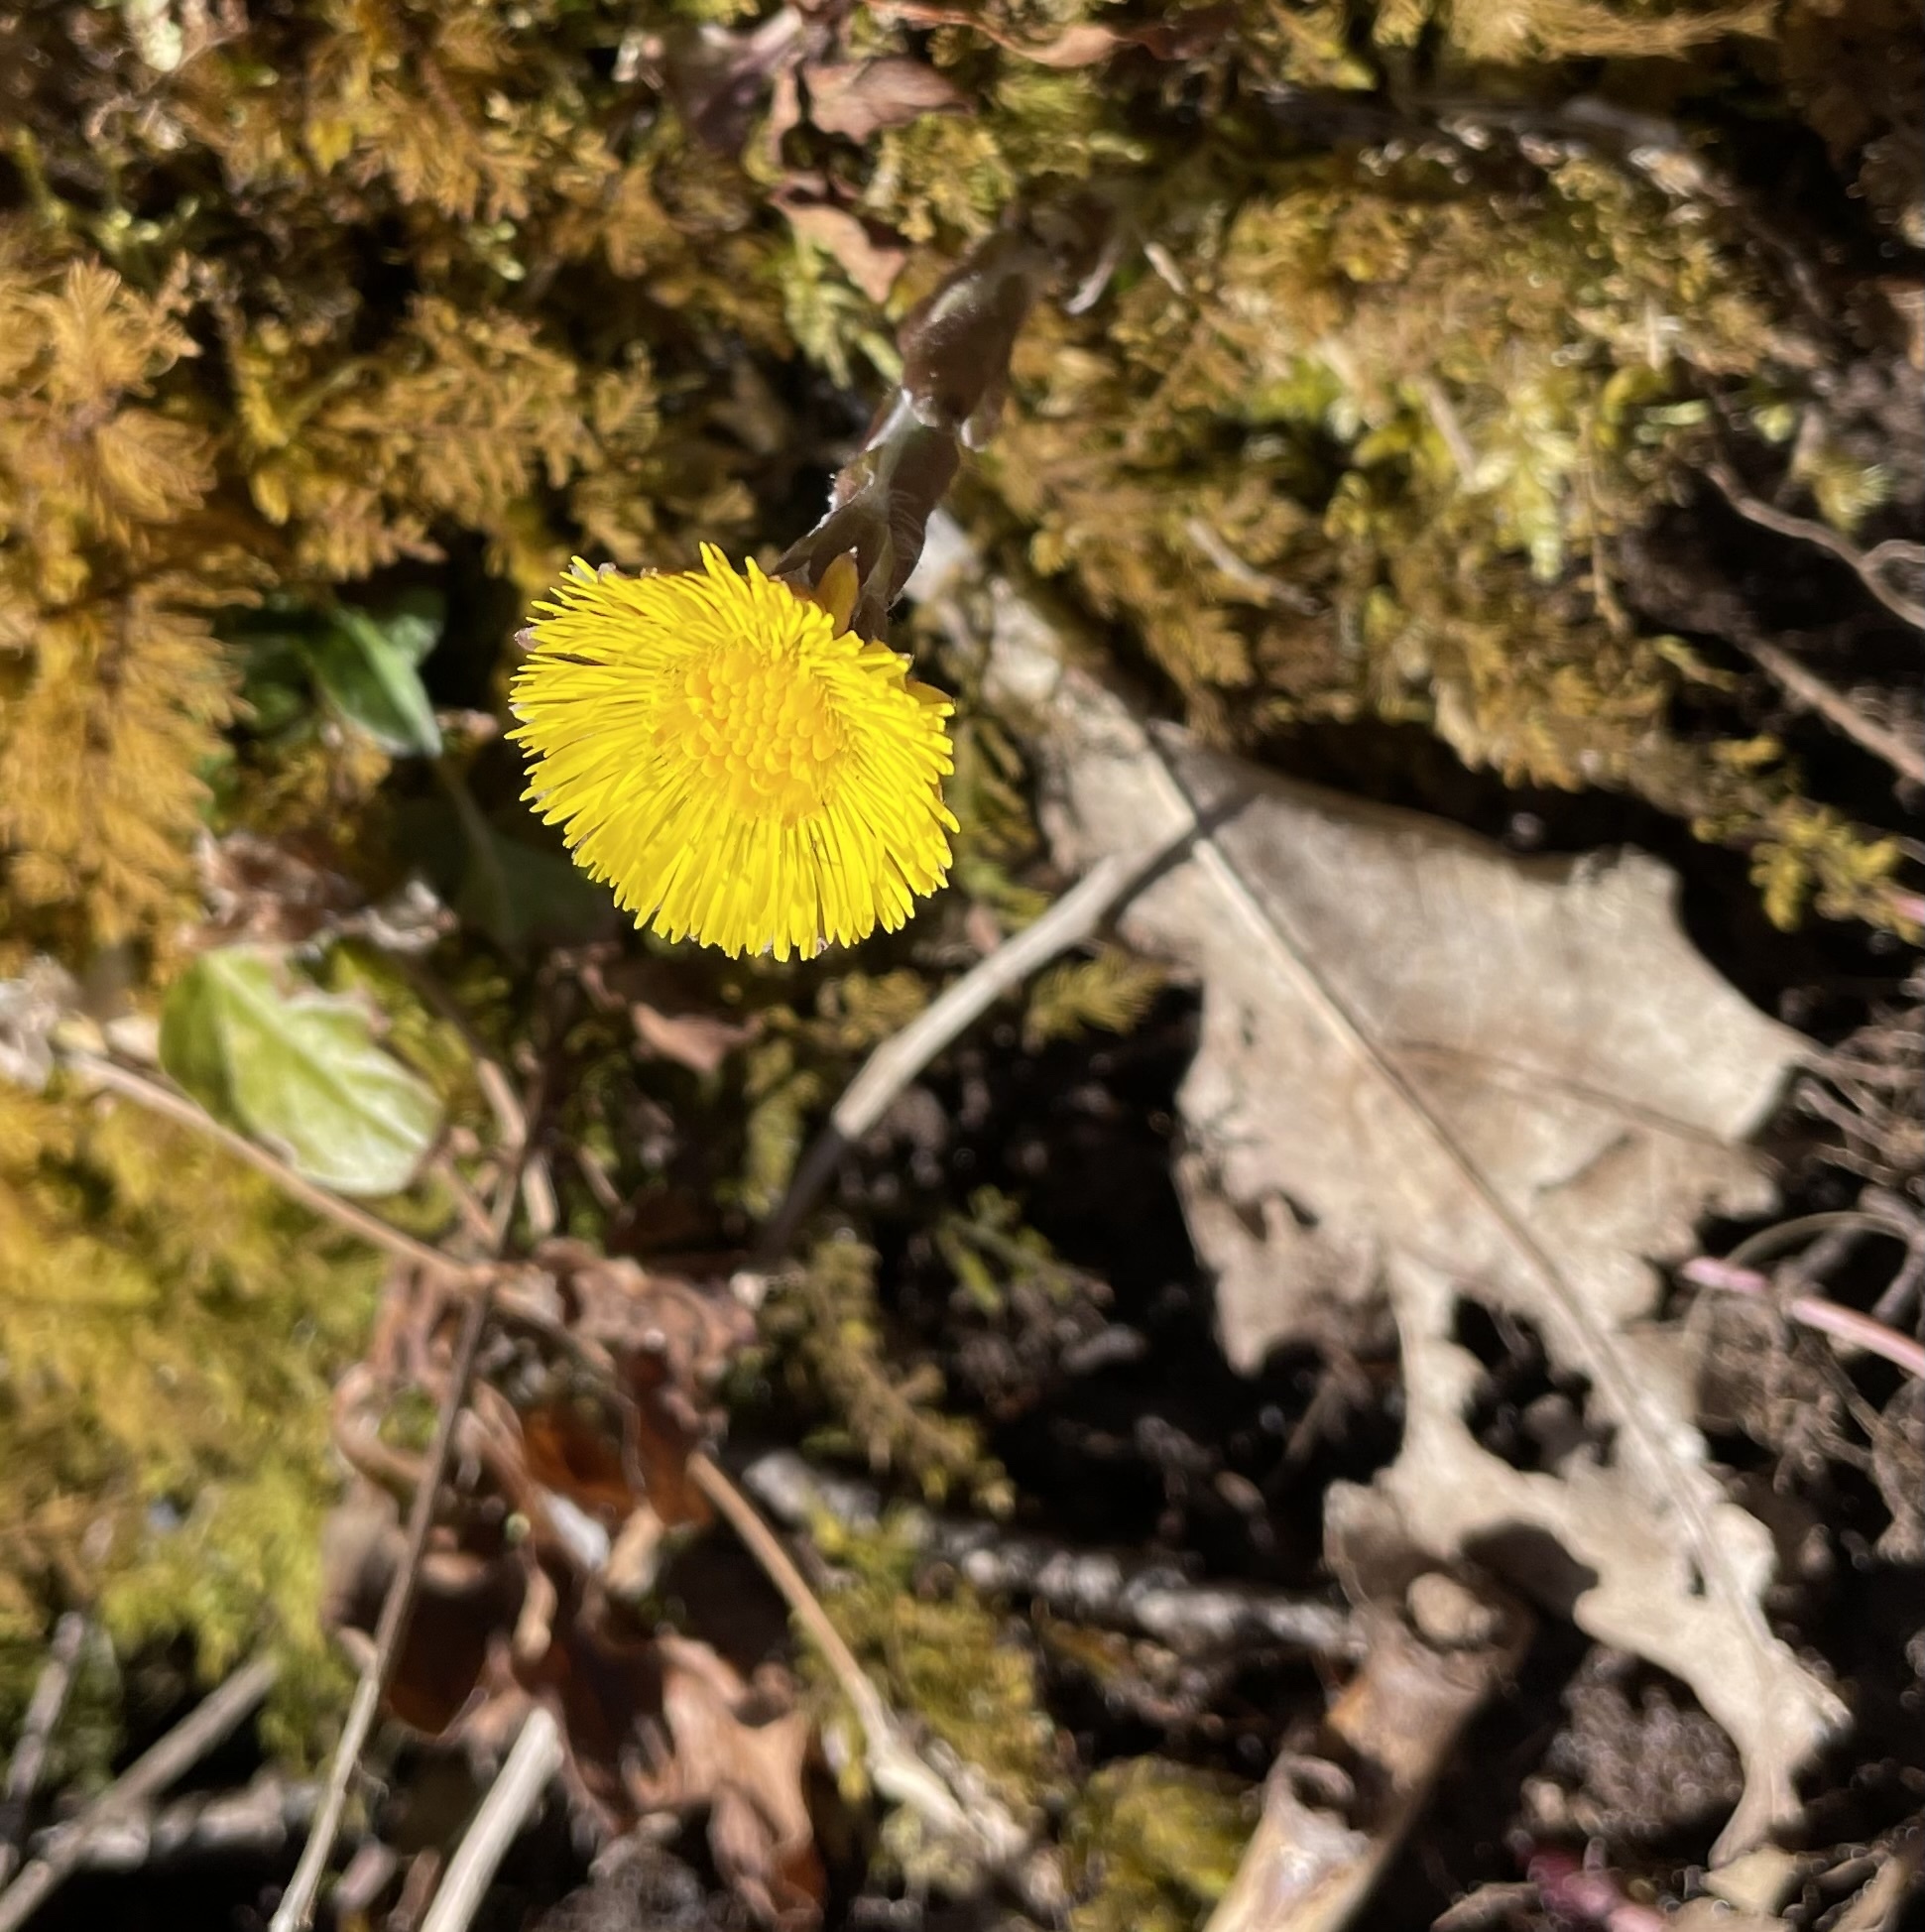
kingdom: Plantae
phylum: Tracheophyta
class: Magnoliopsida
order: Asterales
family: Asteraceae
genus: Tussilago
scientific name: Tussilago farfara
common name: Coltsfoot
